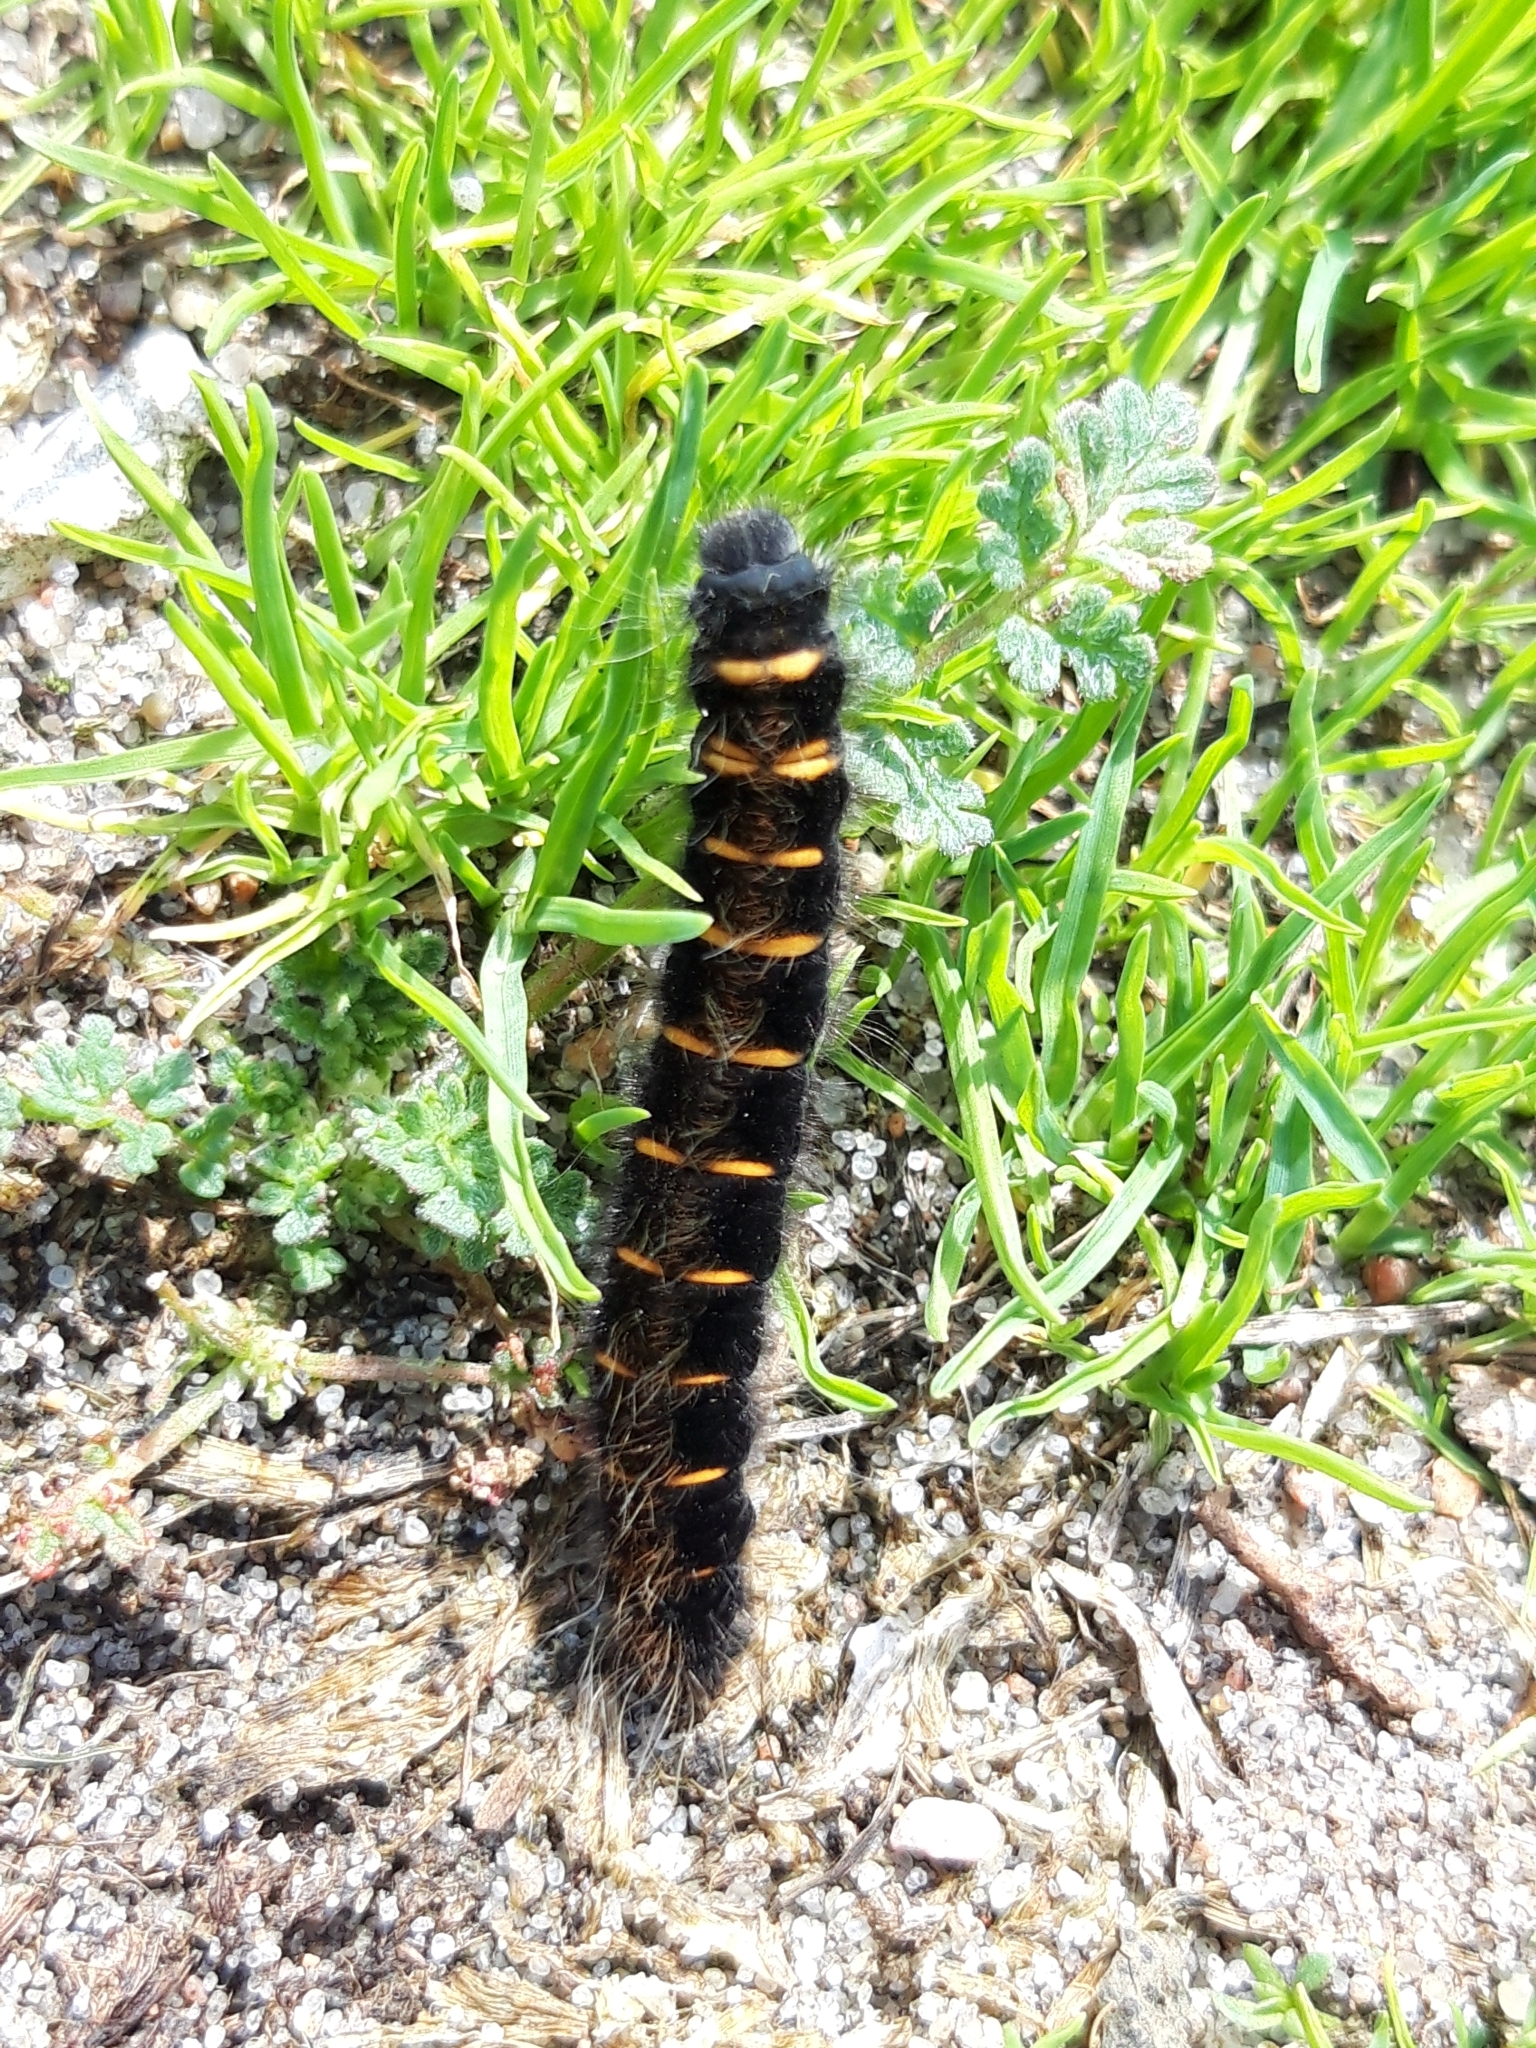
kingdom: Animalia
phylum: Arthropoda
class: Insecta
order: Lepidoptera
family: Lasiocampidae
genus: Macrothylacia
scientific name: Macrothylacia rubi
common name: Fox moth
